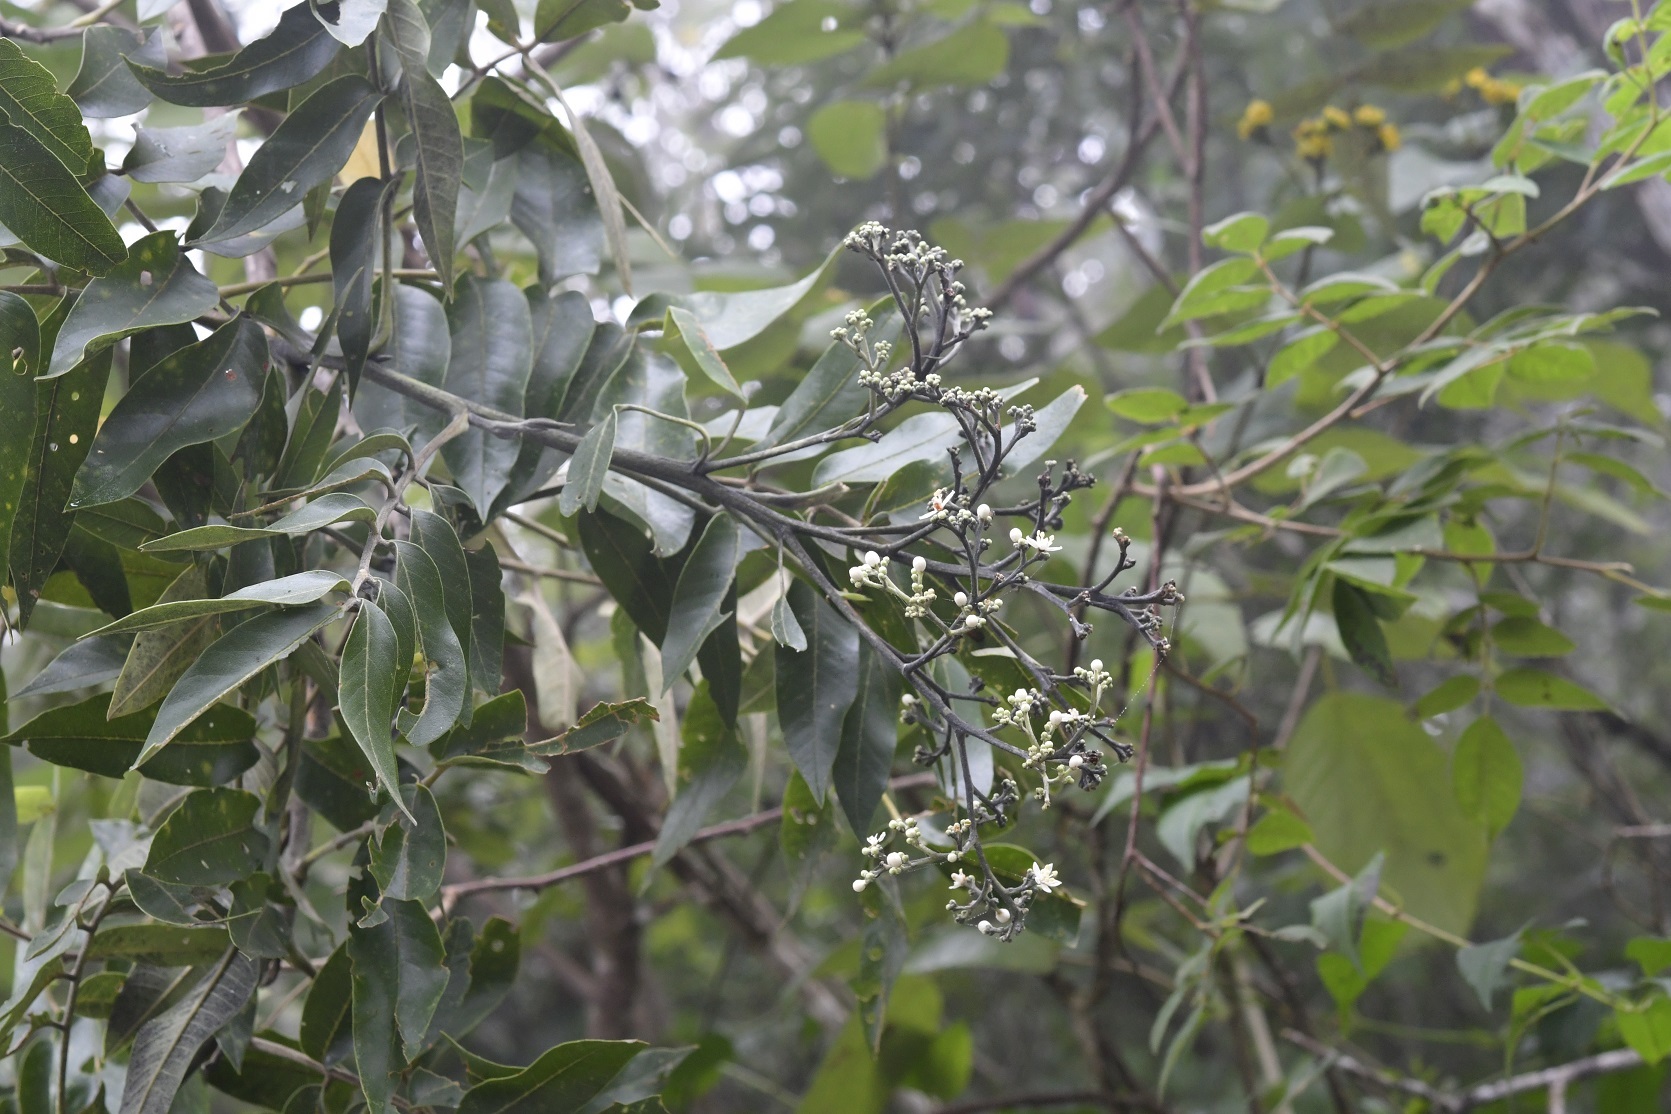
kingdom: Plantae
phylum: Tracheophyta
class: Magnoliopsida
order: Sapindales
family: Anacardiaceae
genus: Rhus
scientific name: Rhus vestita
